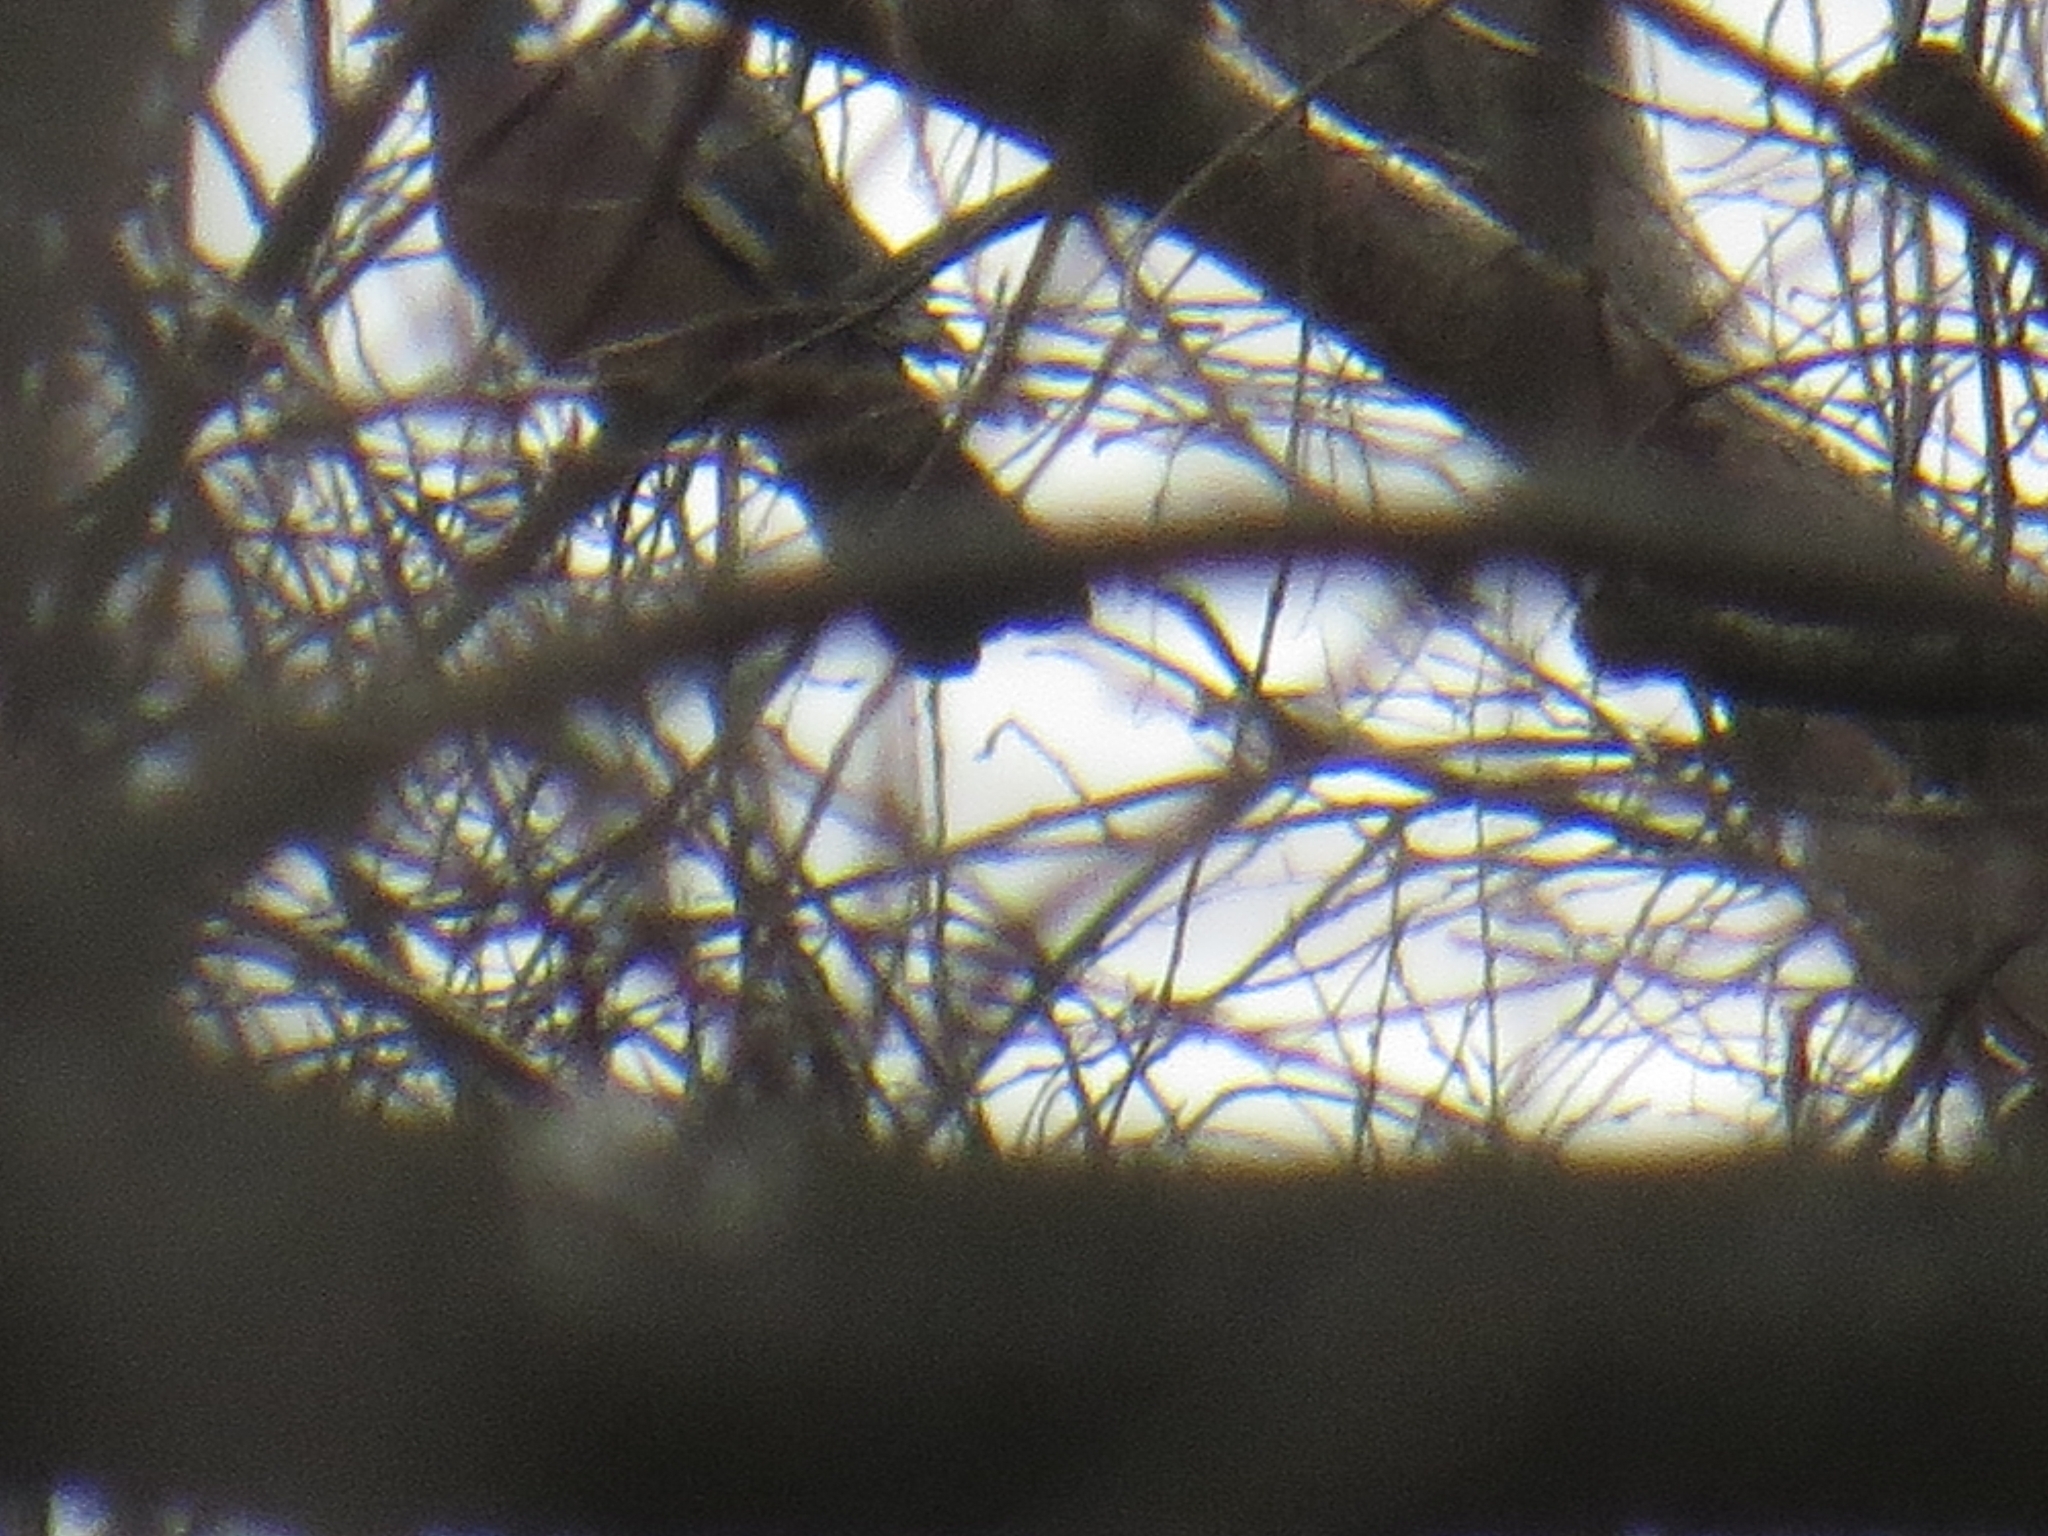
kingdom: Animalia
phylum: Chordata
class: Aves
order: Columbiformes
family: Columbidae
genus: Columba
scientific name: Columba palumbus
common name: Common wood pigeon
